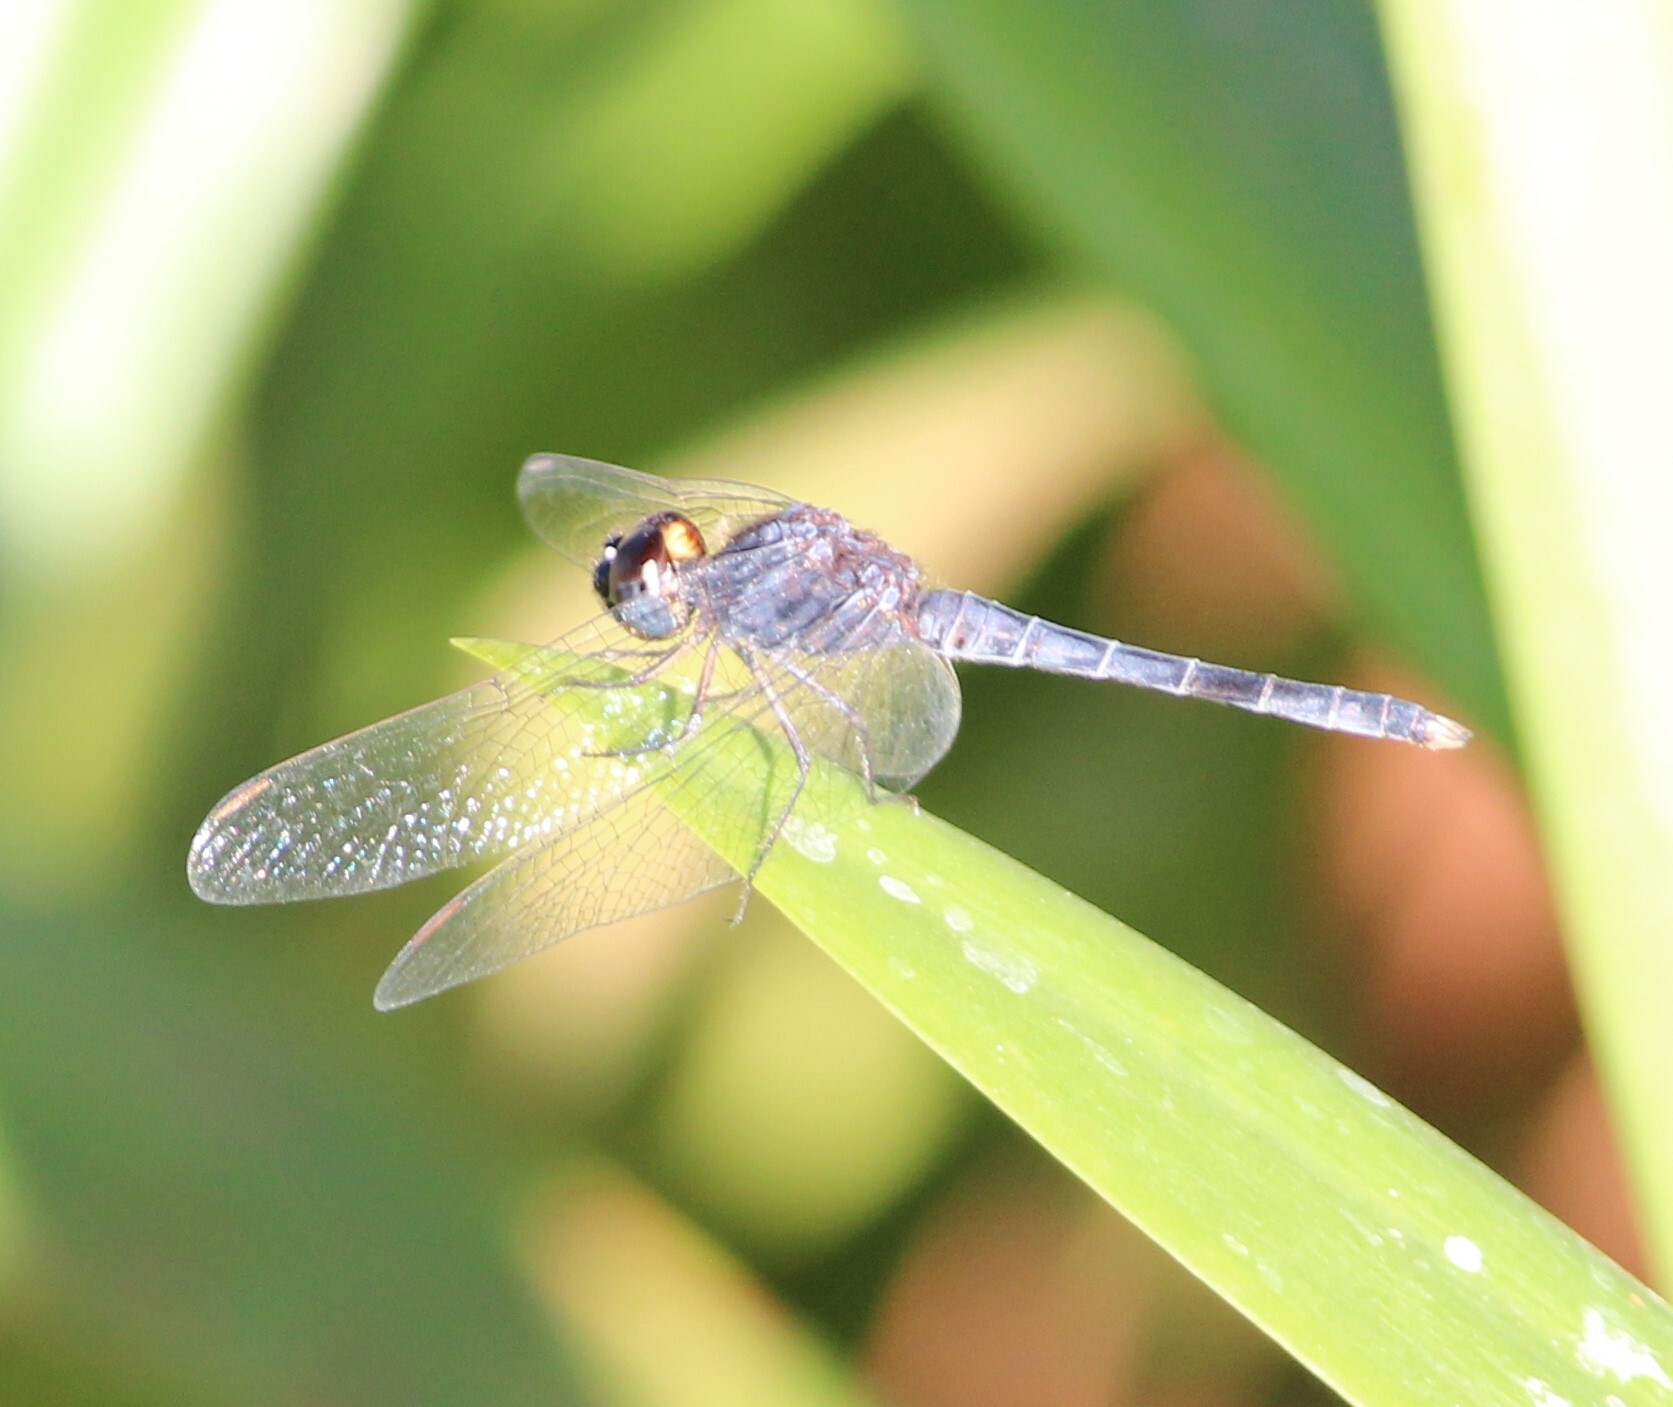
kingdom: Animalia
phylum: Arthropoda
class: Insecta
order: Odonata
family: Libellulidae
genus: Indothemis
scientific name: Indothemis carnatica
